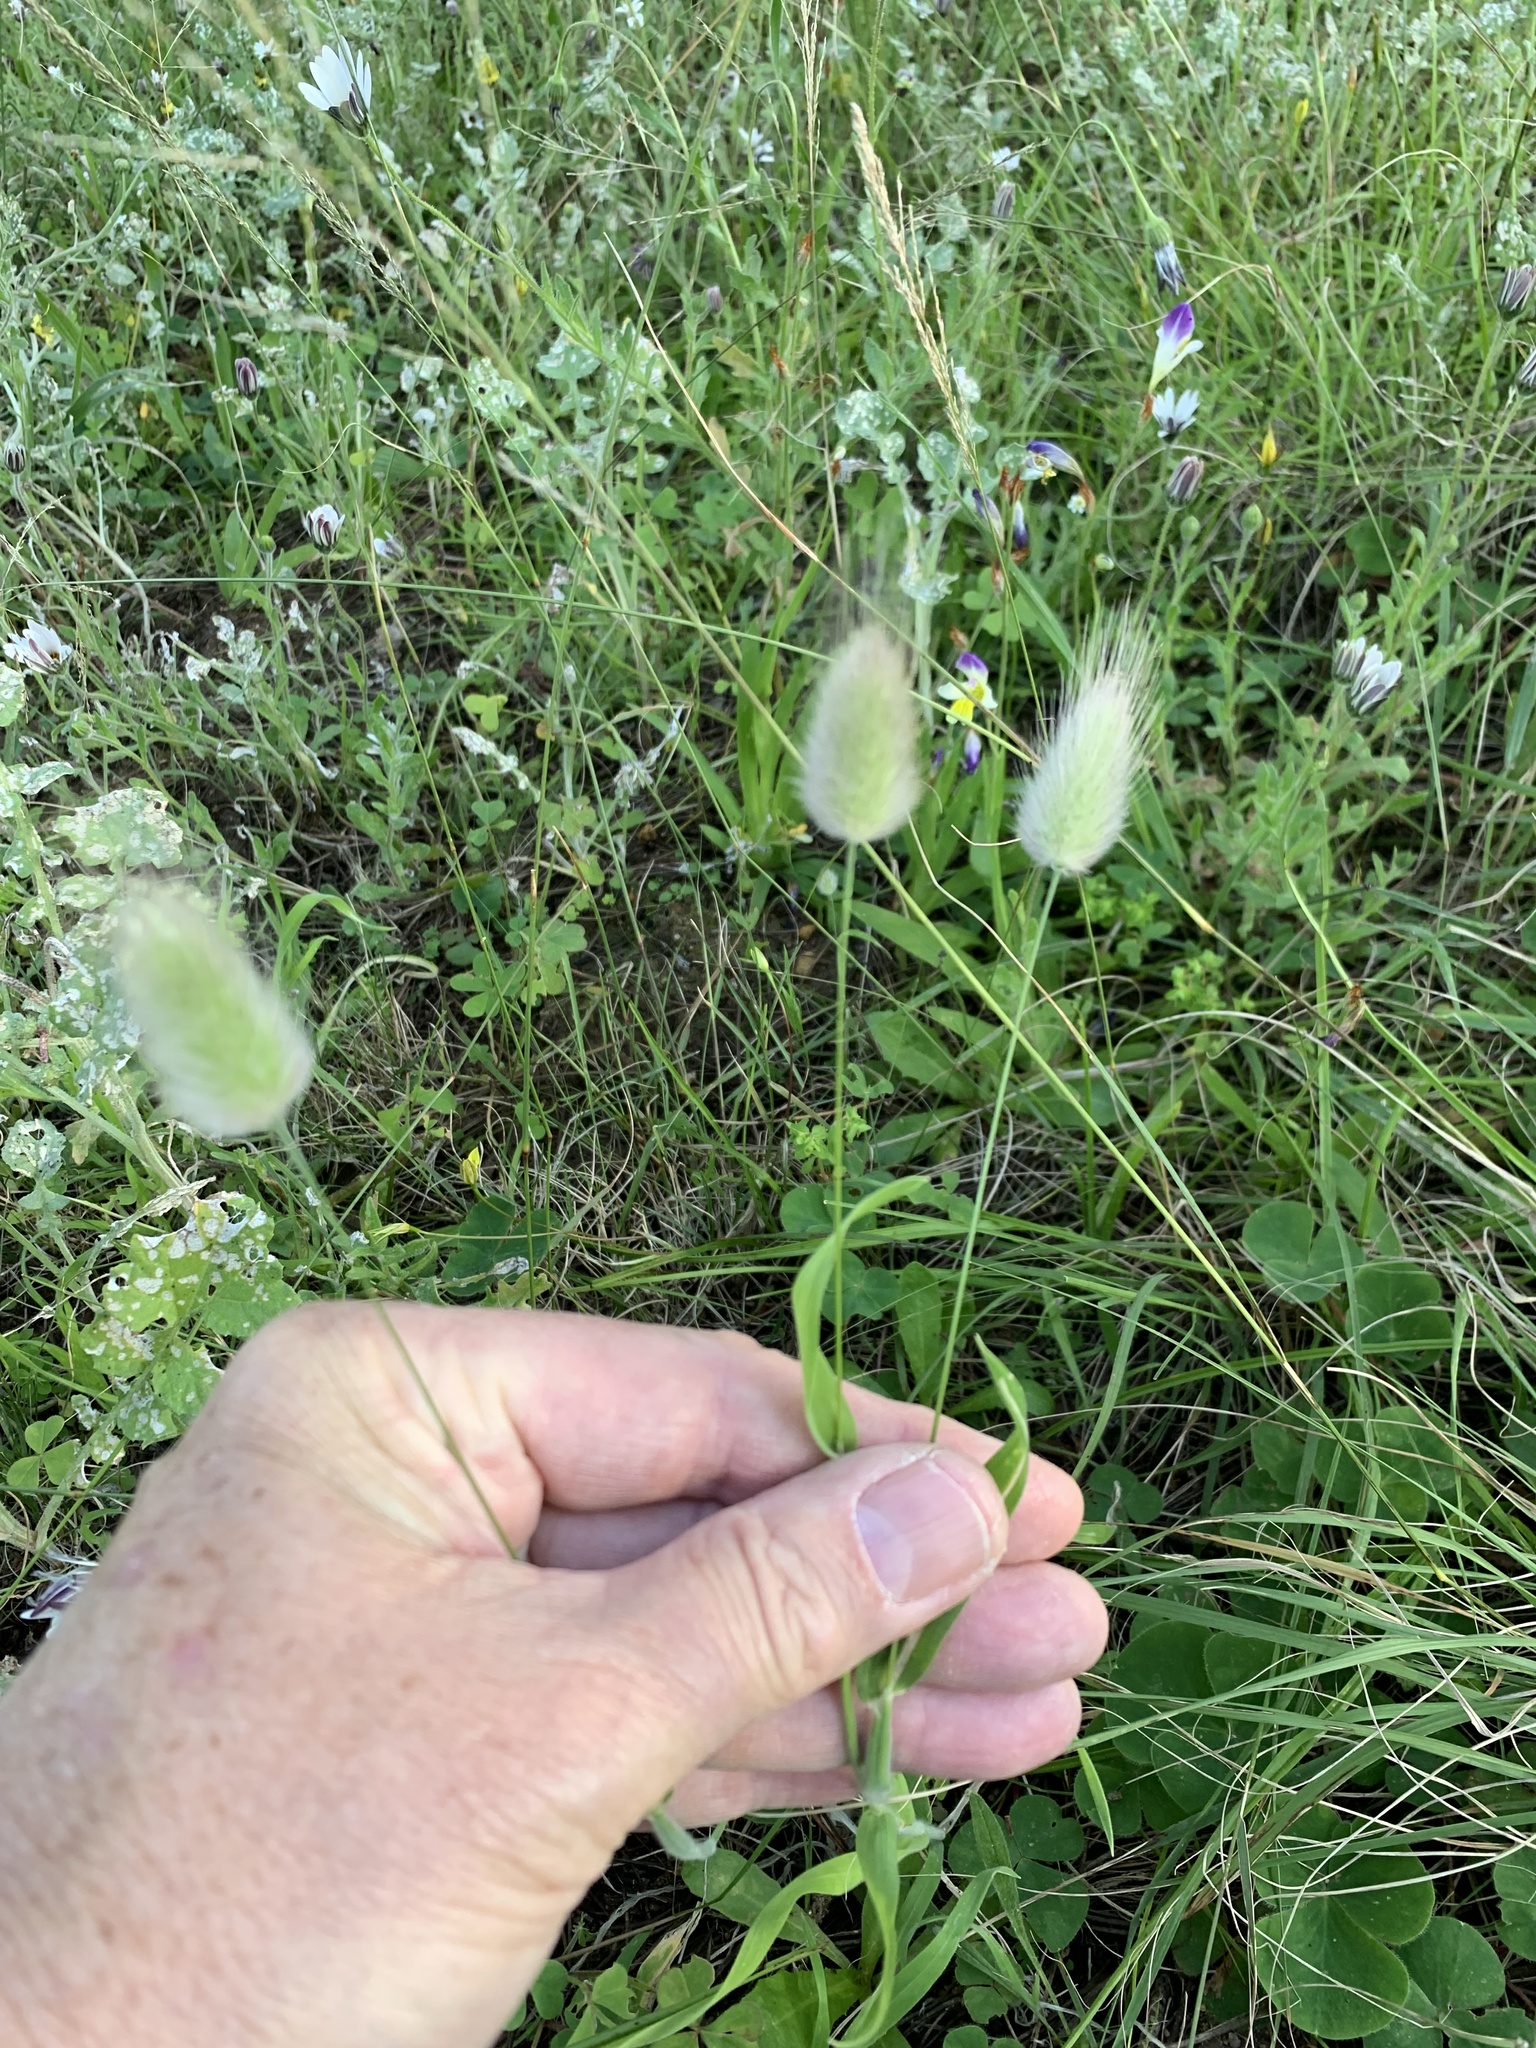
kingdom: Plantae
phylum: Tracheophyta
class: Liliopsida
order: Poales
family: Poaceae
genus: Lagurus
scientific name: Lagurus ovatus
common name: Hare's-tail
